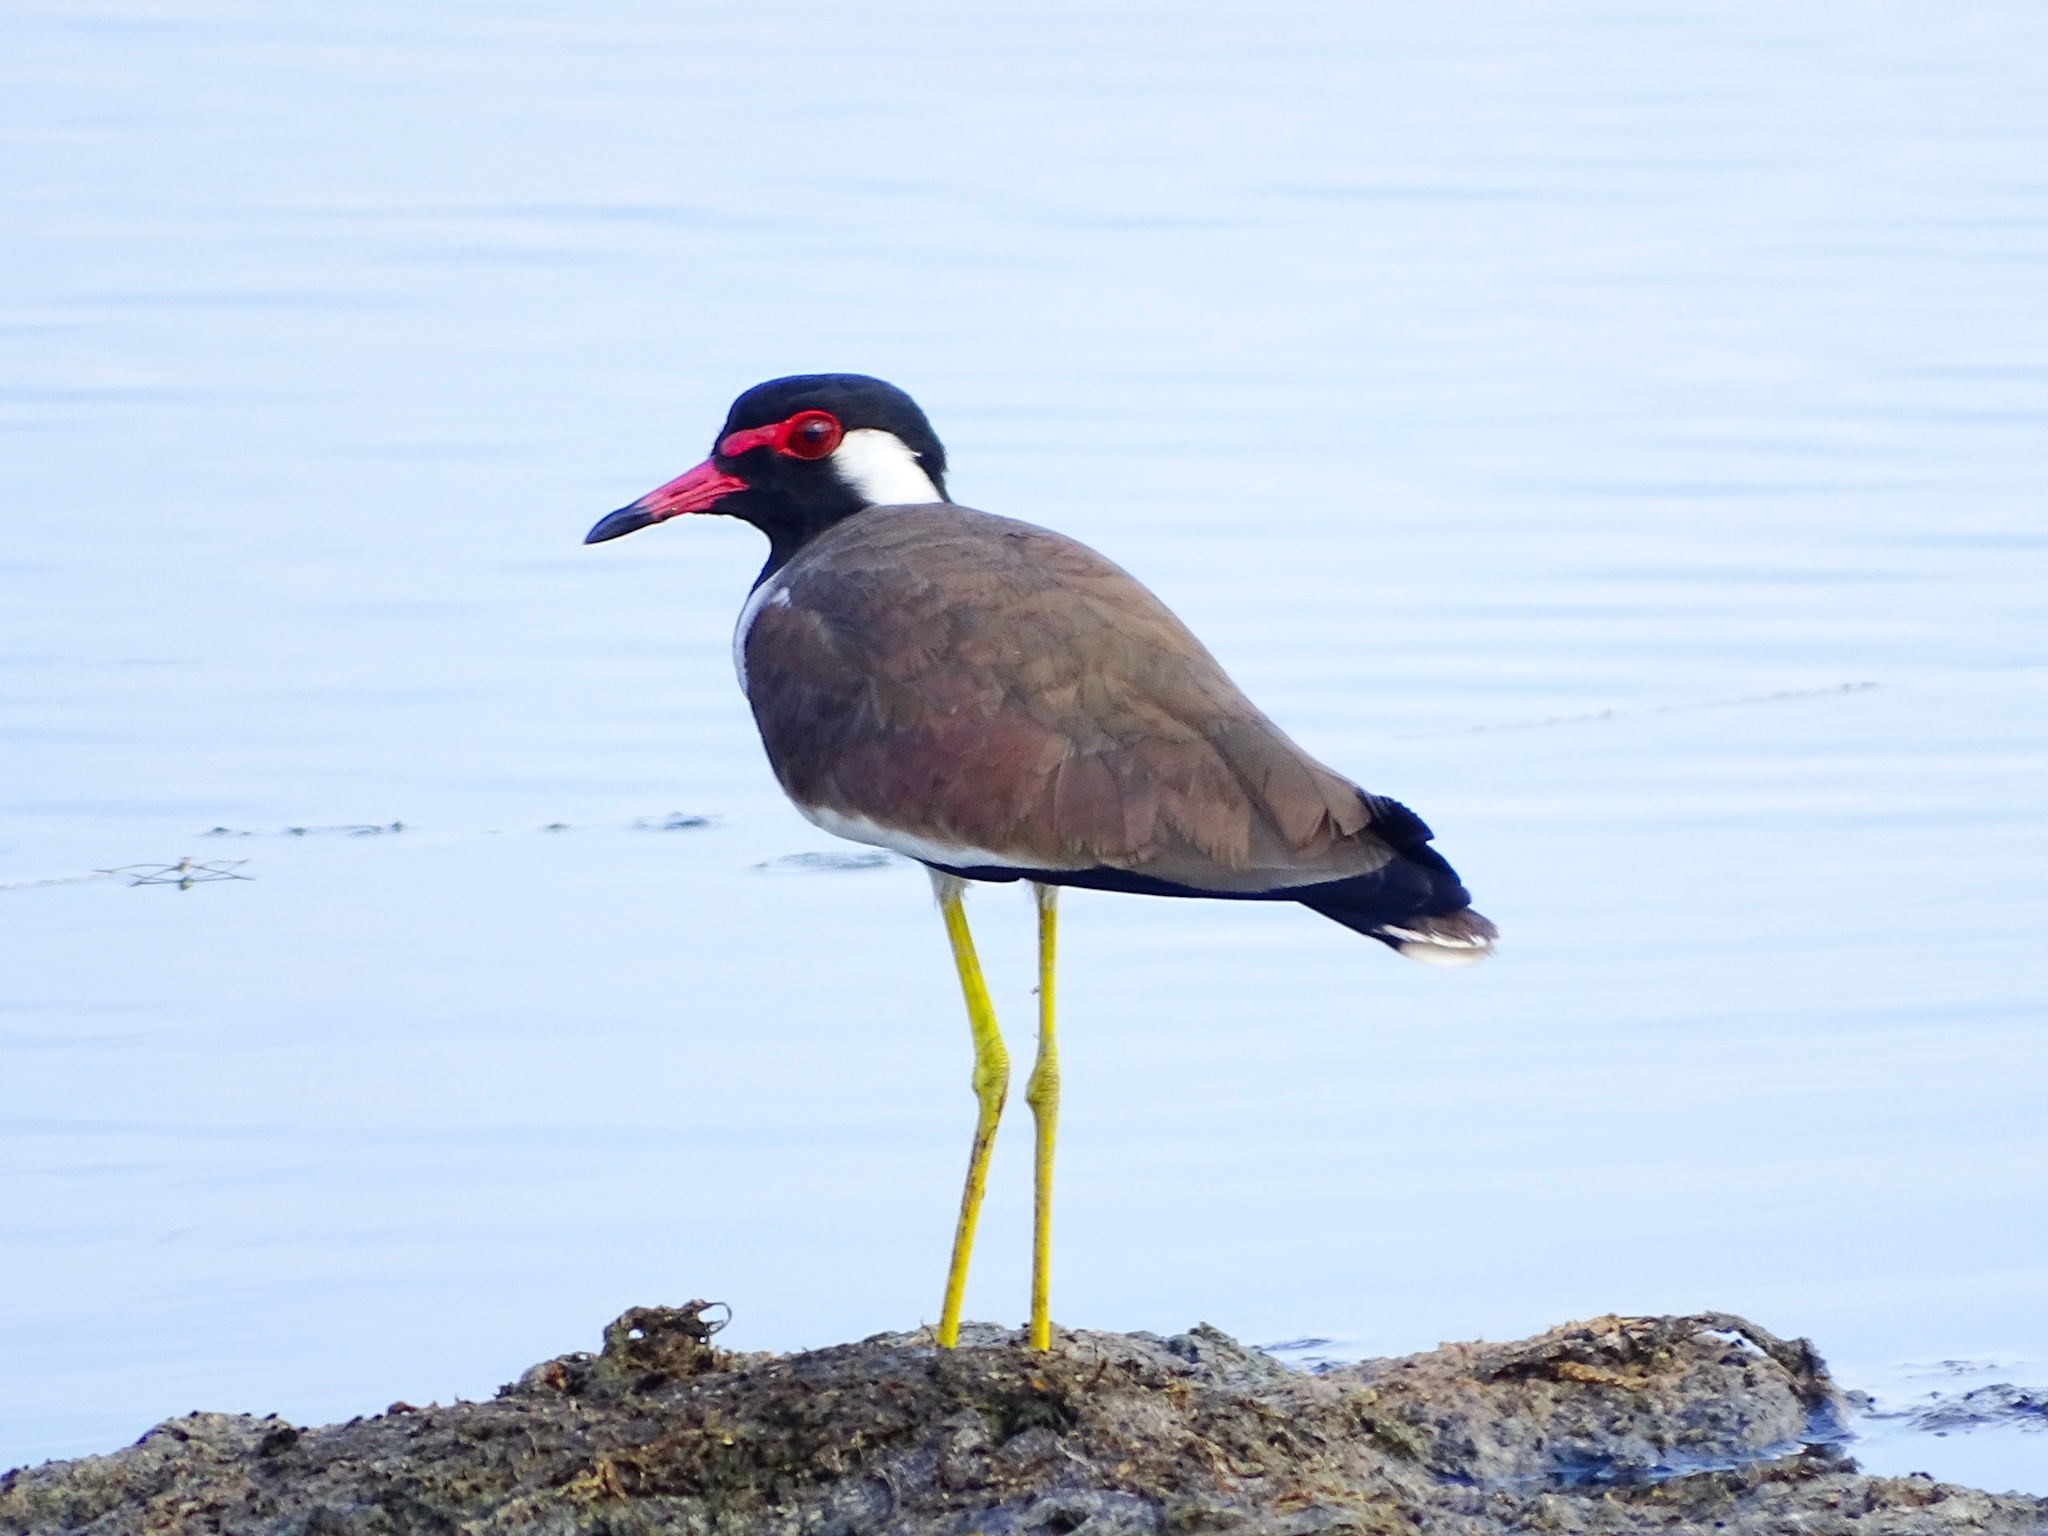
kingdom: Animalia
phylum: Chordata
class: Aves
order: Charadriiformes
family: Charadriidae
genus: Vanellus
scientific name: Vanellus indicus
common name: Red-wattled lapwing
